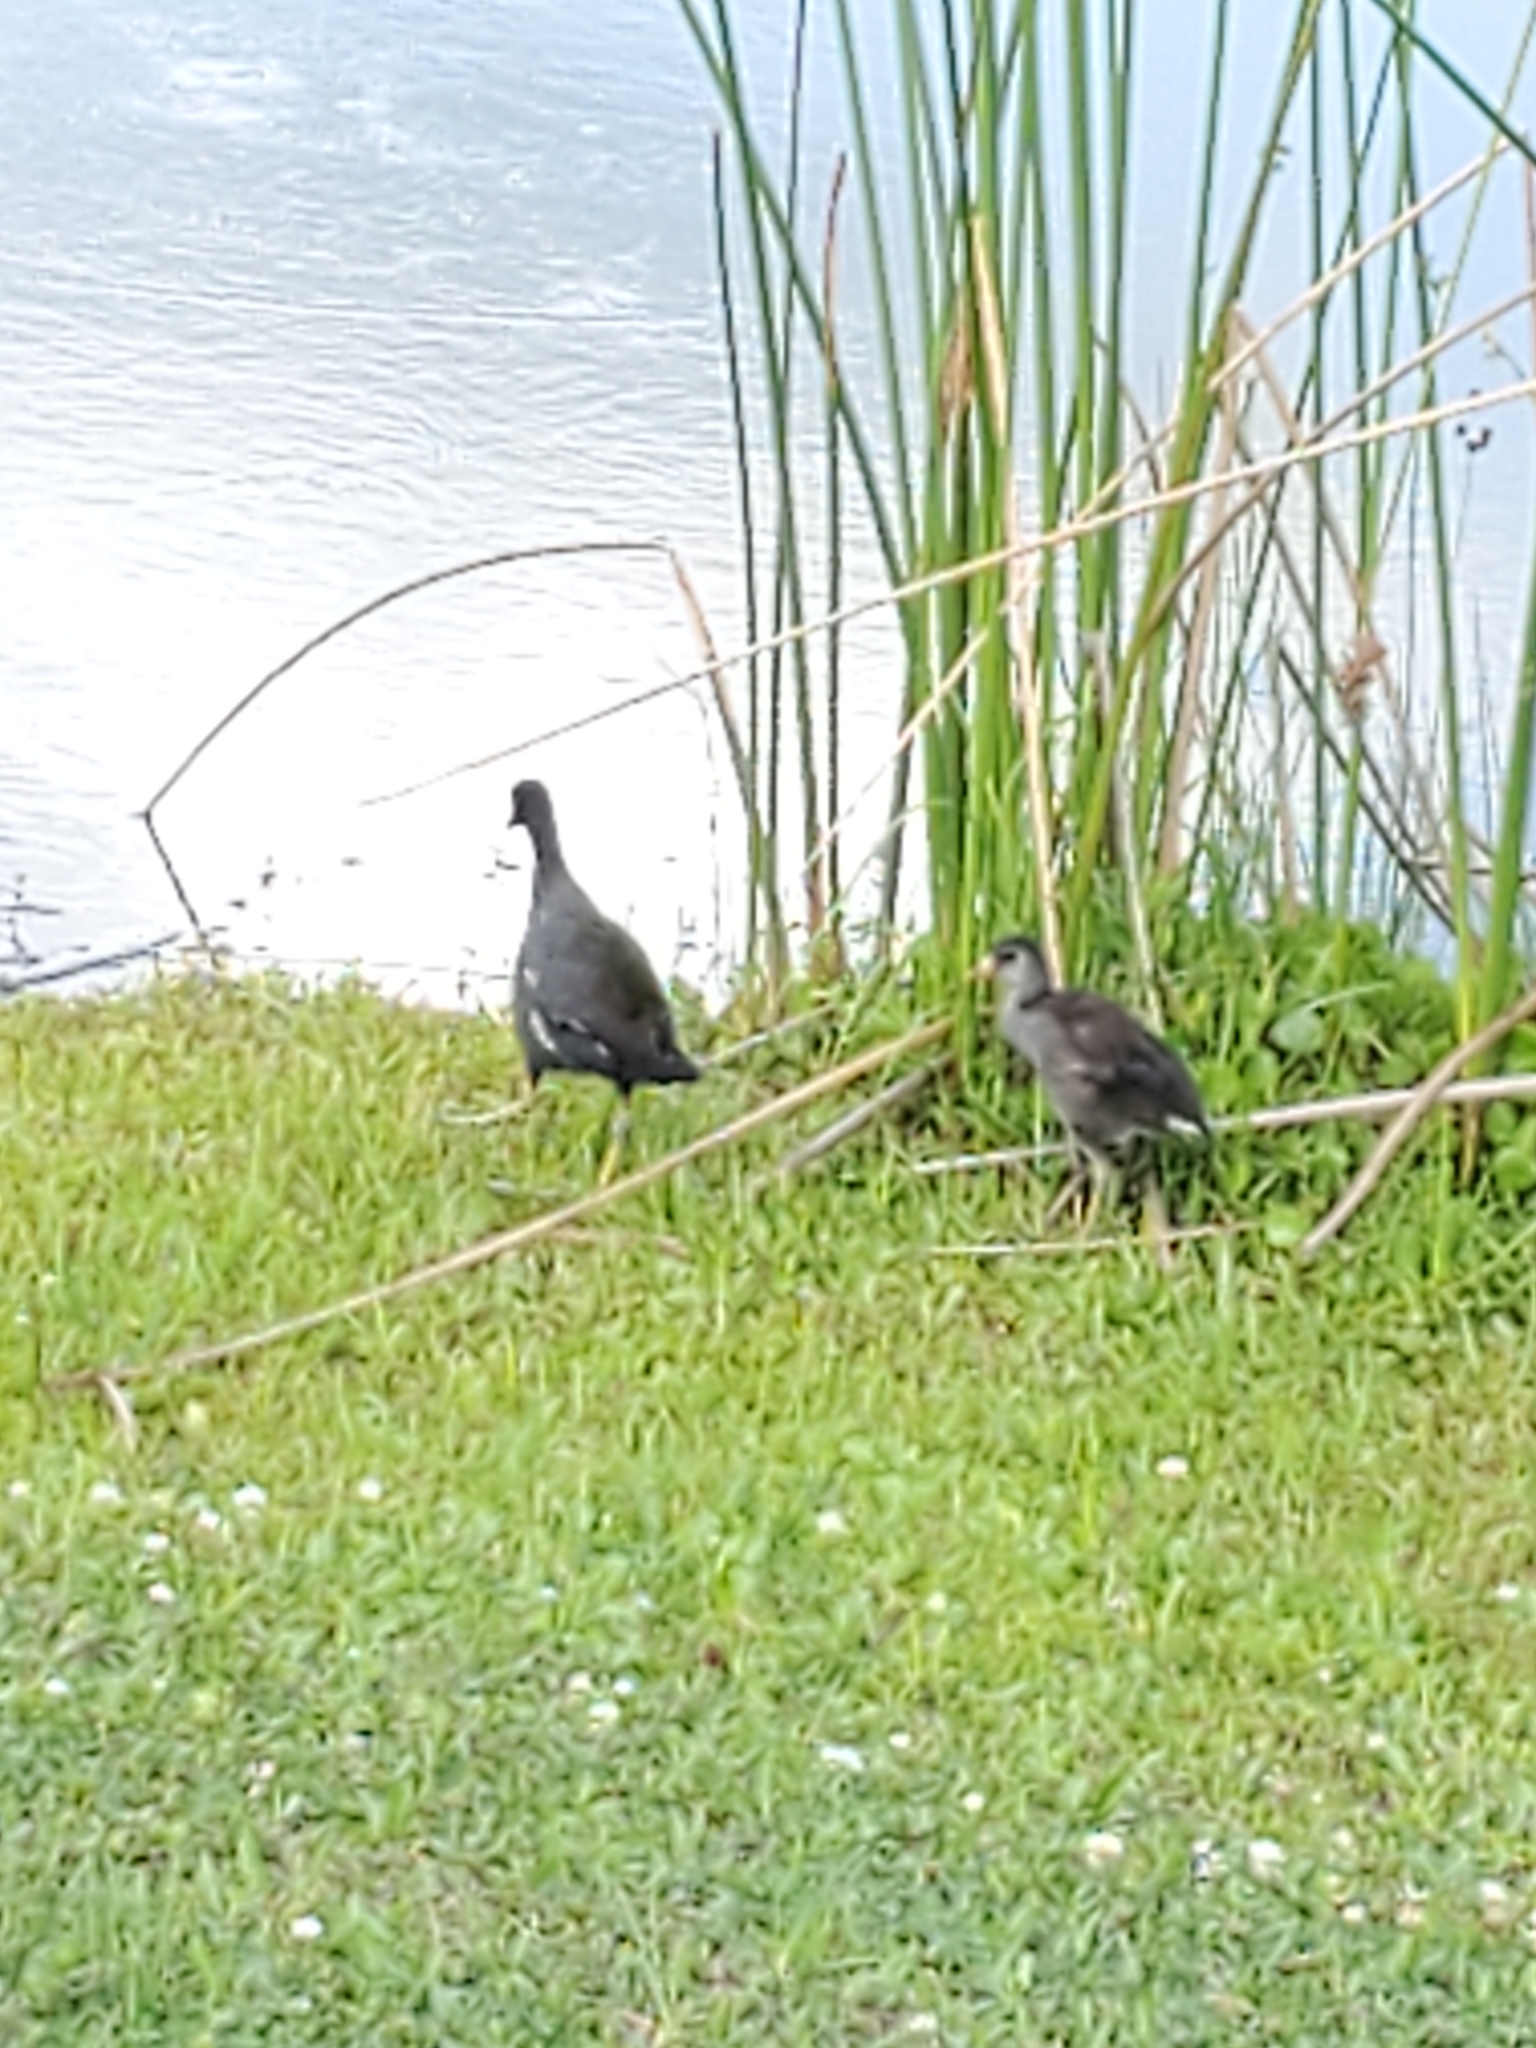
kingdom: Animalia
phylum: Chordata
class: Aves
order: Gruiformes
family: Rallidae
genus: Gallinula
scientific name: Gallinula chloropus
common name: Common moorhen
